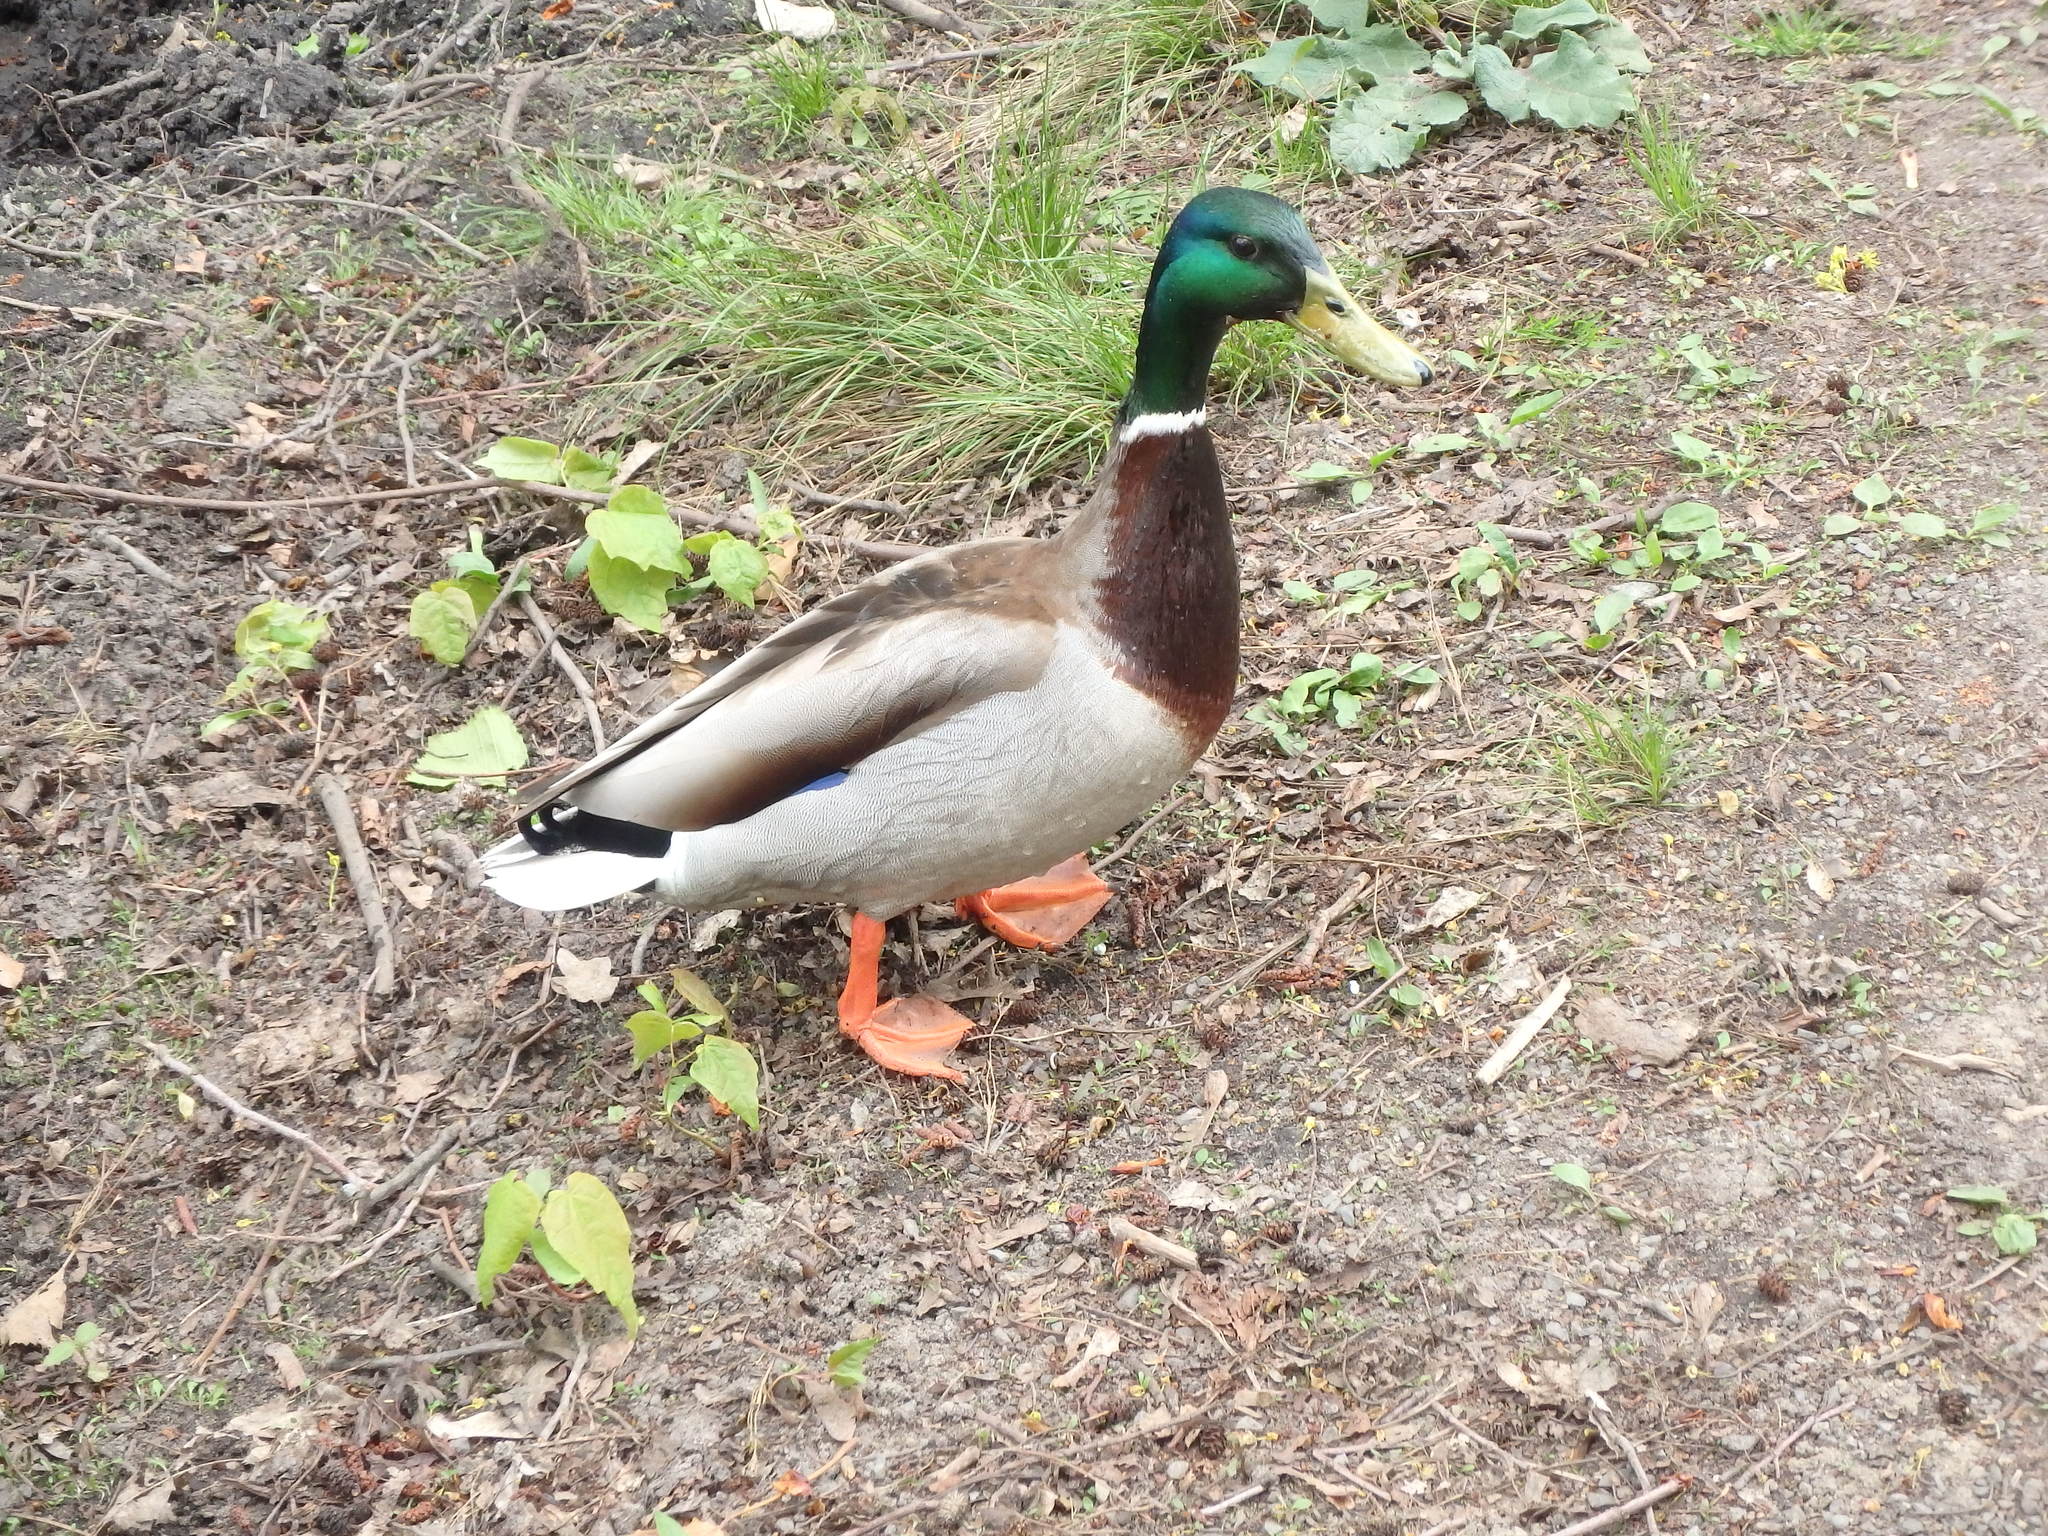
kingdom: Animalia
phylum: Chordata
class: Aves
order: Anseriformes
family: Anatidae
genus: Anas
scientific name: Anas platyrhynchos
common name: Mallard
